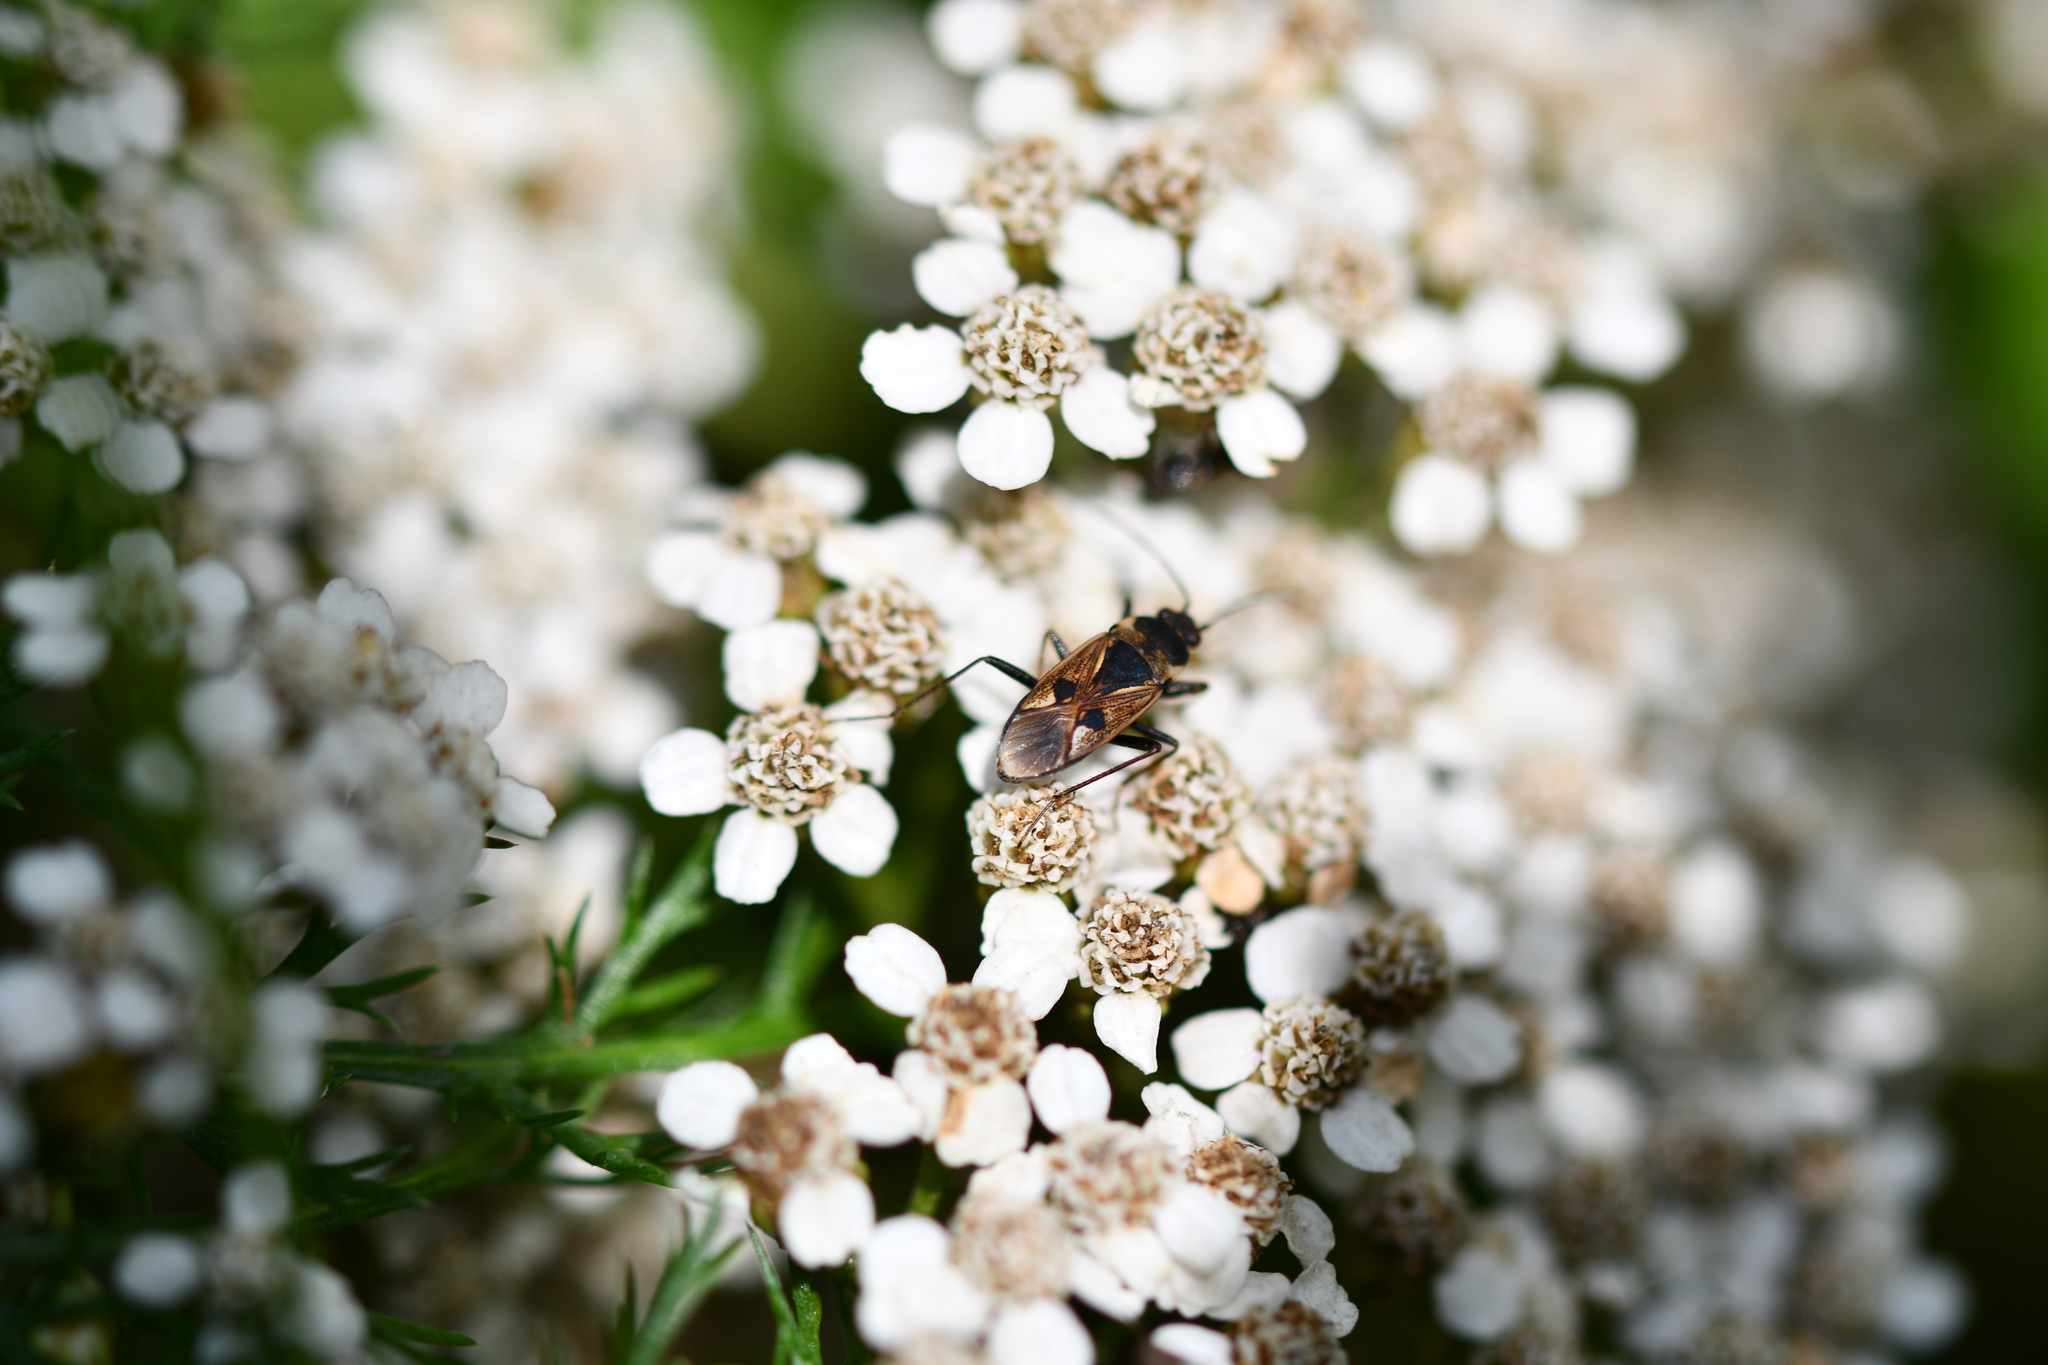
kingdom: Animalia
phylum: Arthropoda
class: Insecta
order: Hemiptera
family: Rhyparochromidae
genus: Rhyparochromus
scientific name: Rhyparochromus vulgaris
